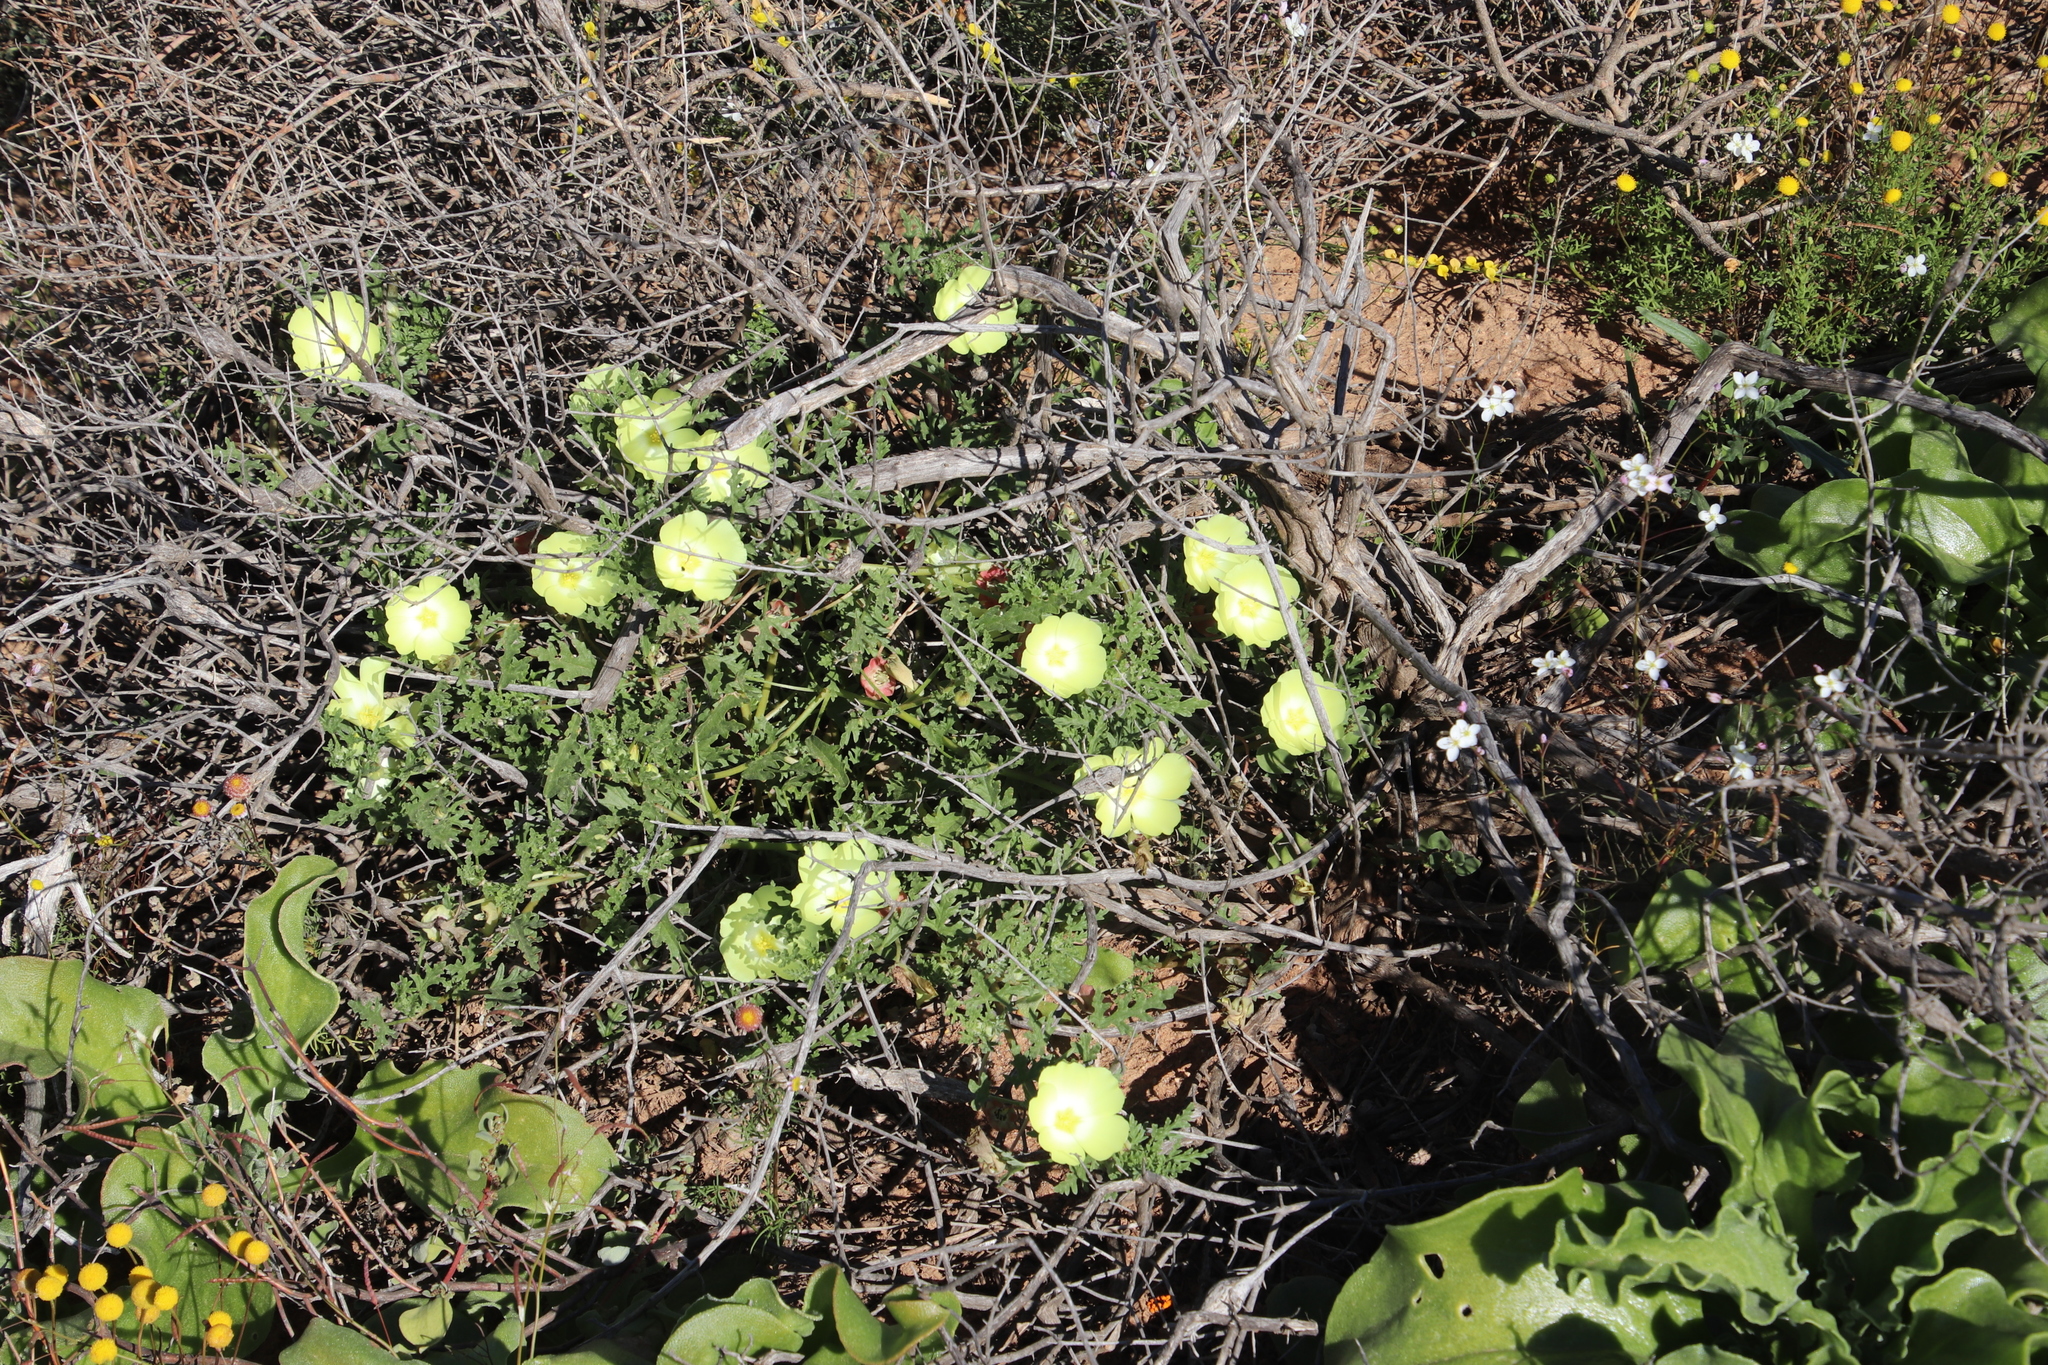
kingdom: Plantae
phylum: Tracheophyta
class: Magnoliopsida
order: Malvales
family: Neuradaceae
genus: Grielum
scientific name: Grielum humifusum
